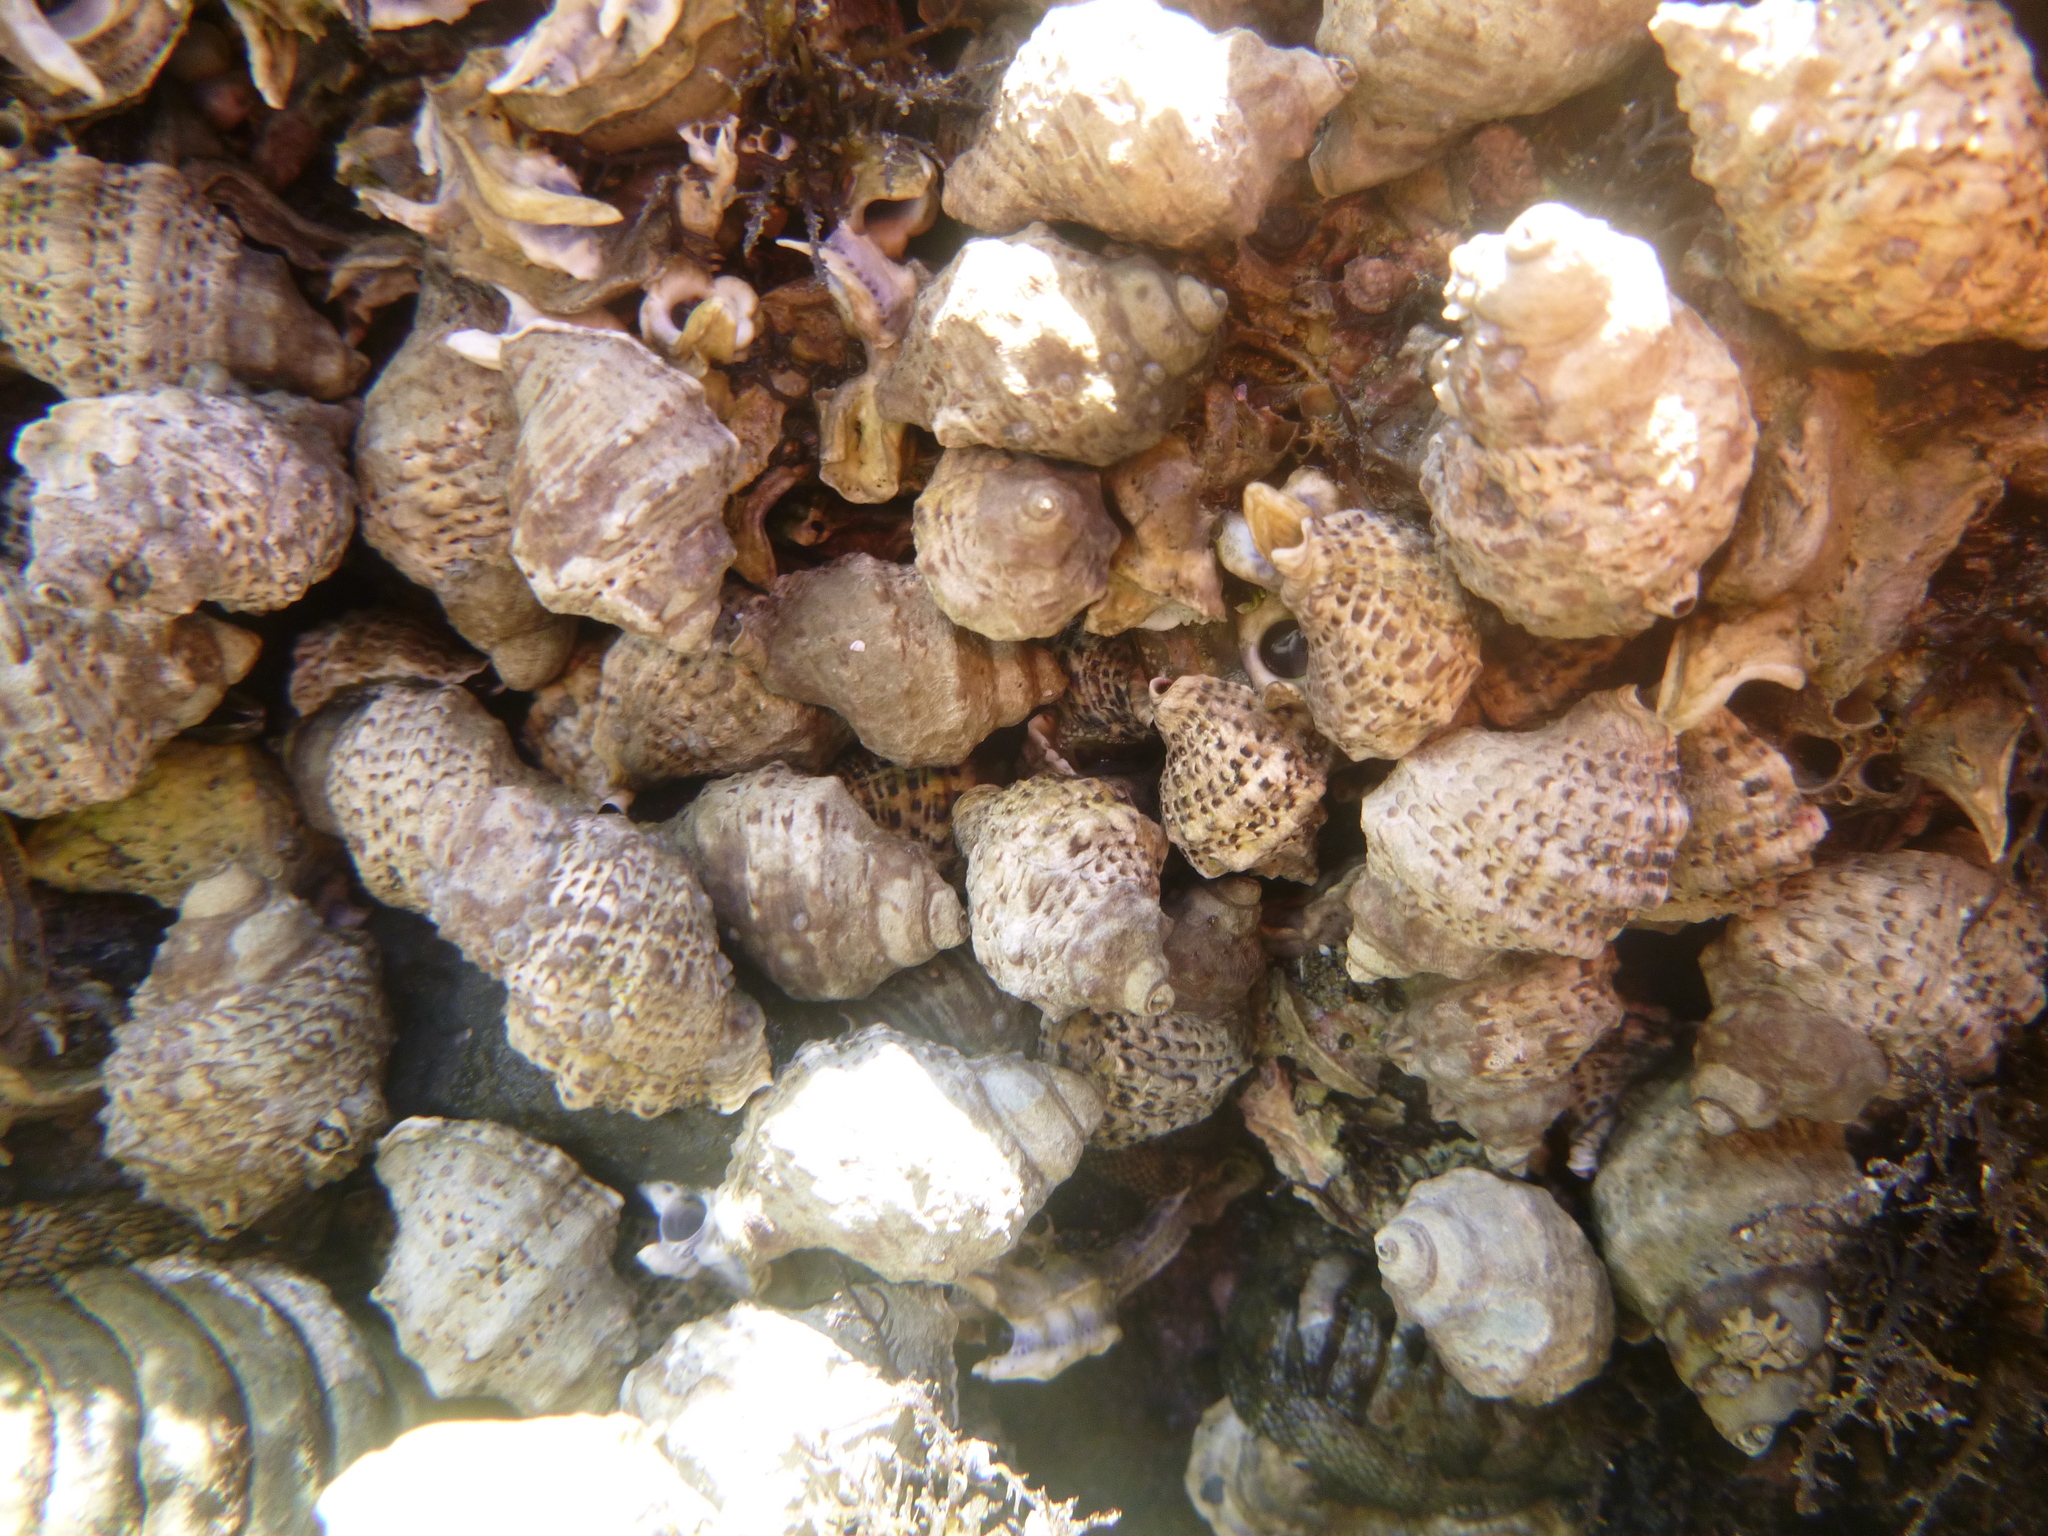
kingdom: Animalia
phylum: Mollusca
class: Gastropoda
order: Neogastropoda
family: Muricidae
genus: Haustrum
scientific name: Haustrum scobina
